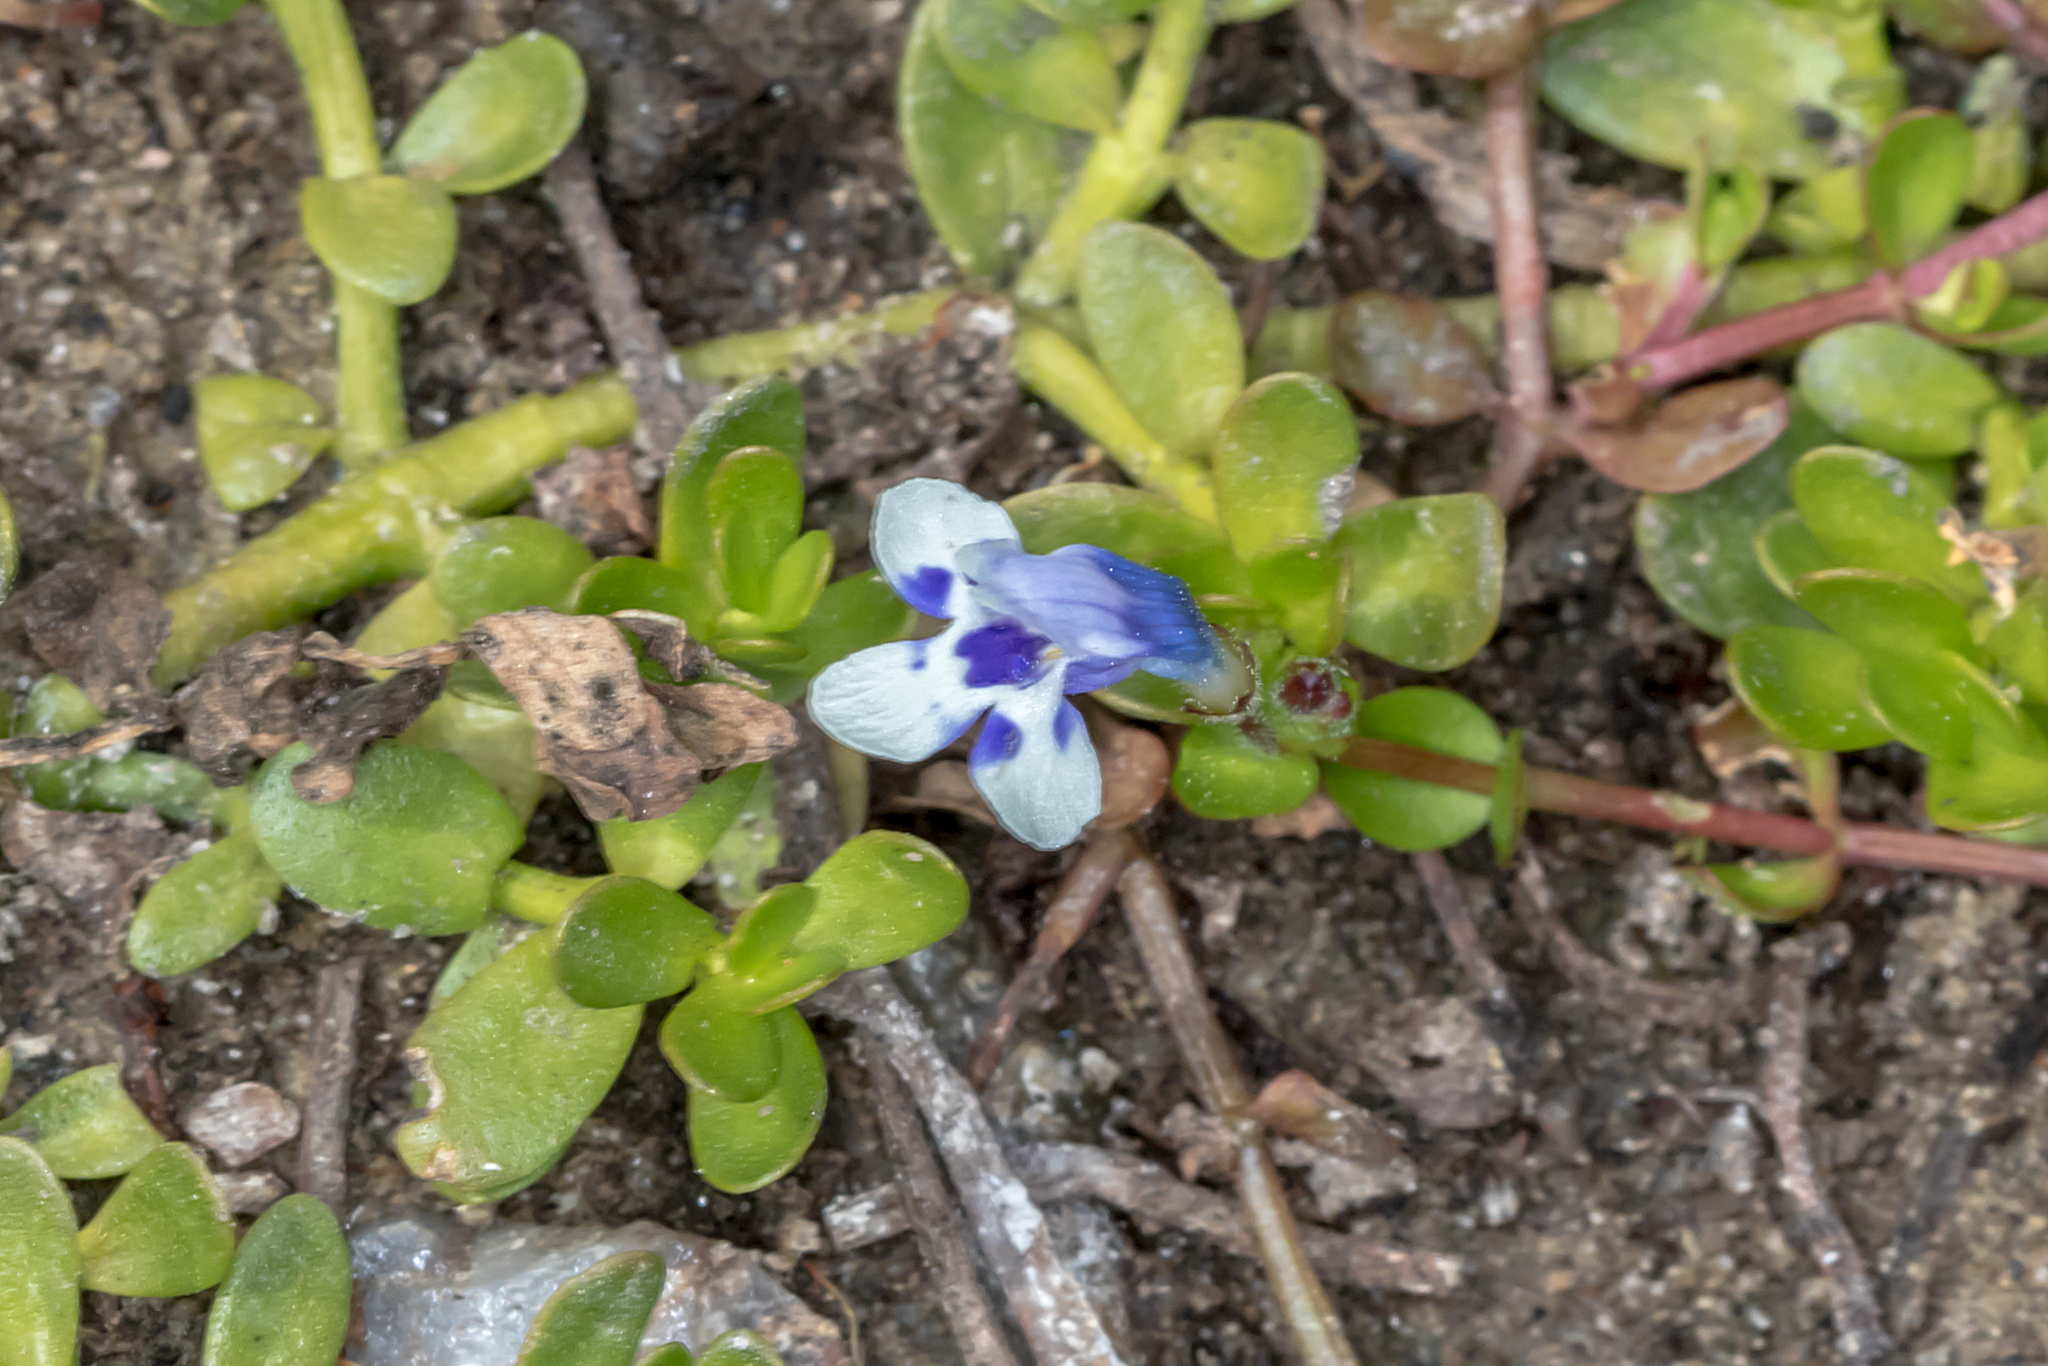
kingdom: Plantae
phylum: Tracheophyta
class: Magnoliopsida
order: Lamiales
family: Linderniaceae
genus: Lindernia
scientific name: Lindernia rotundifolia
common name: Baby’s tears
